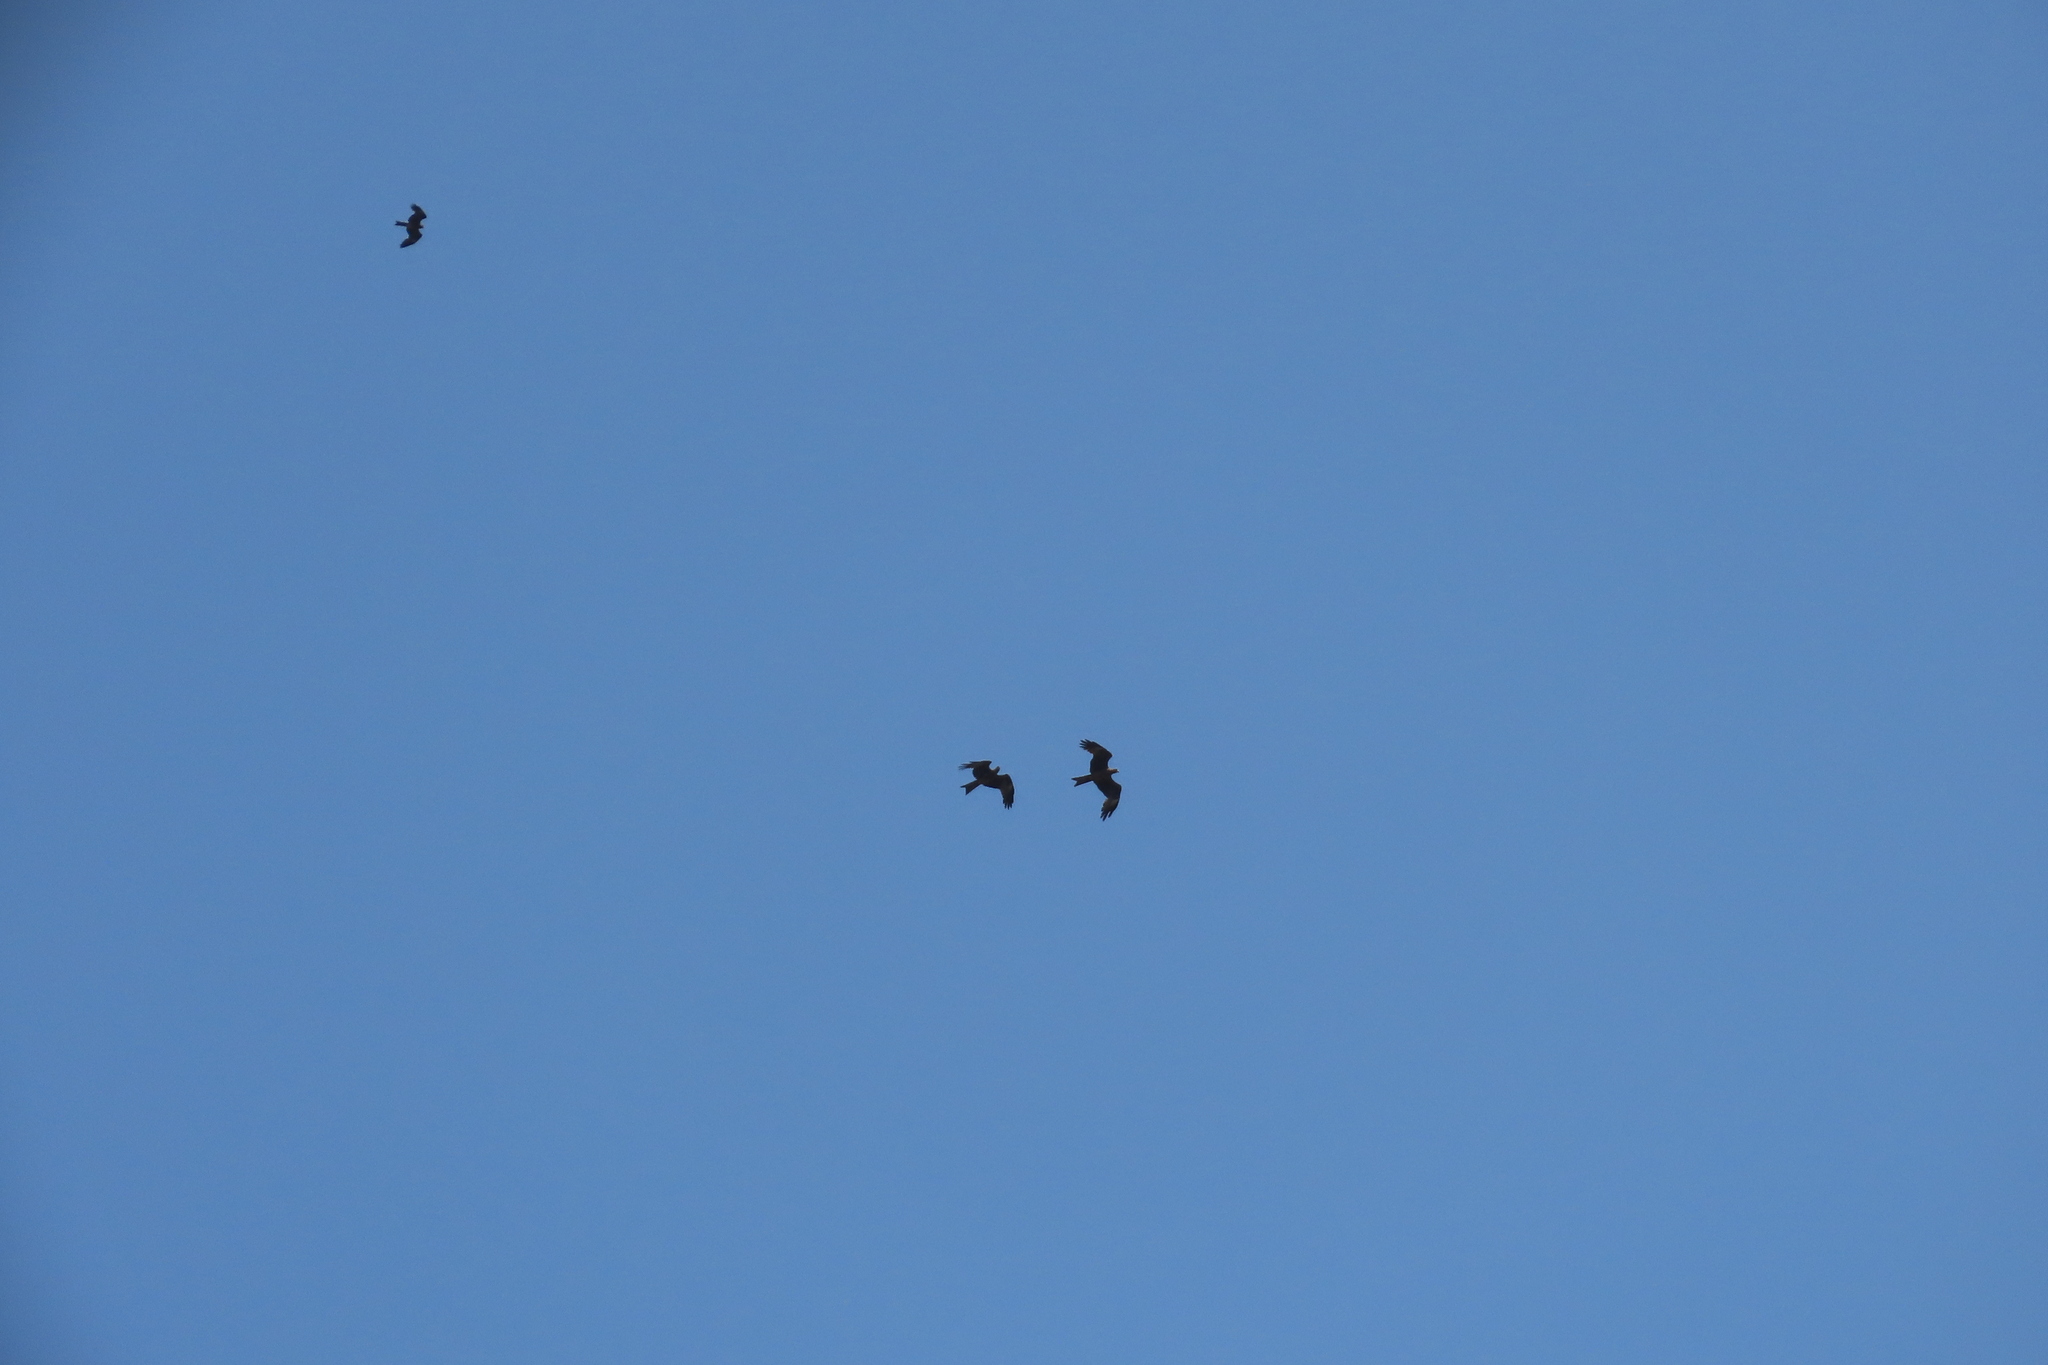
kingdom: Animalia
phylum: Chordata
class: Aves
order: Accipitriformes
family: Accipitridae
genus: Milvus
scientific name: Milvus migrans
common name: Black kite
